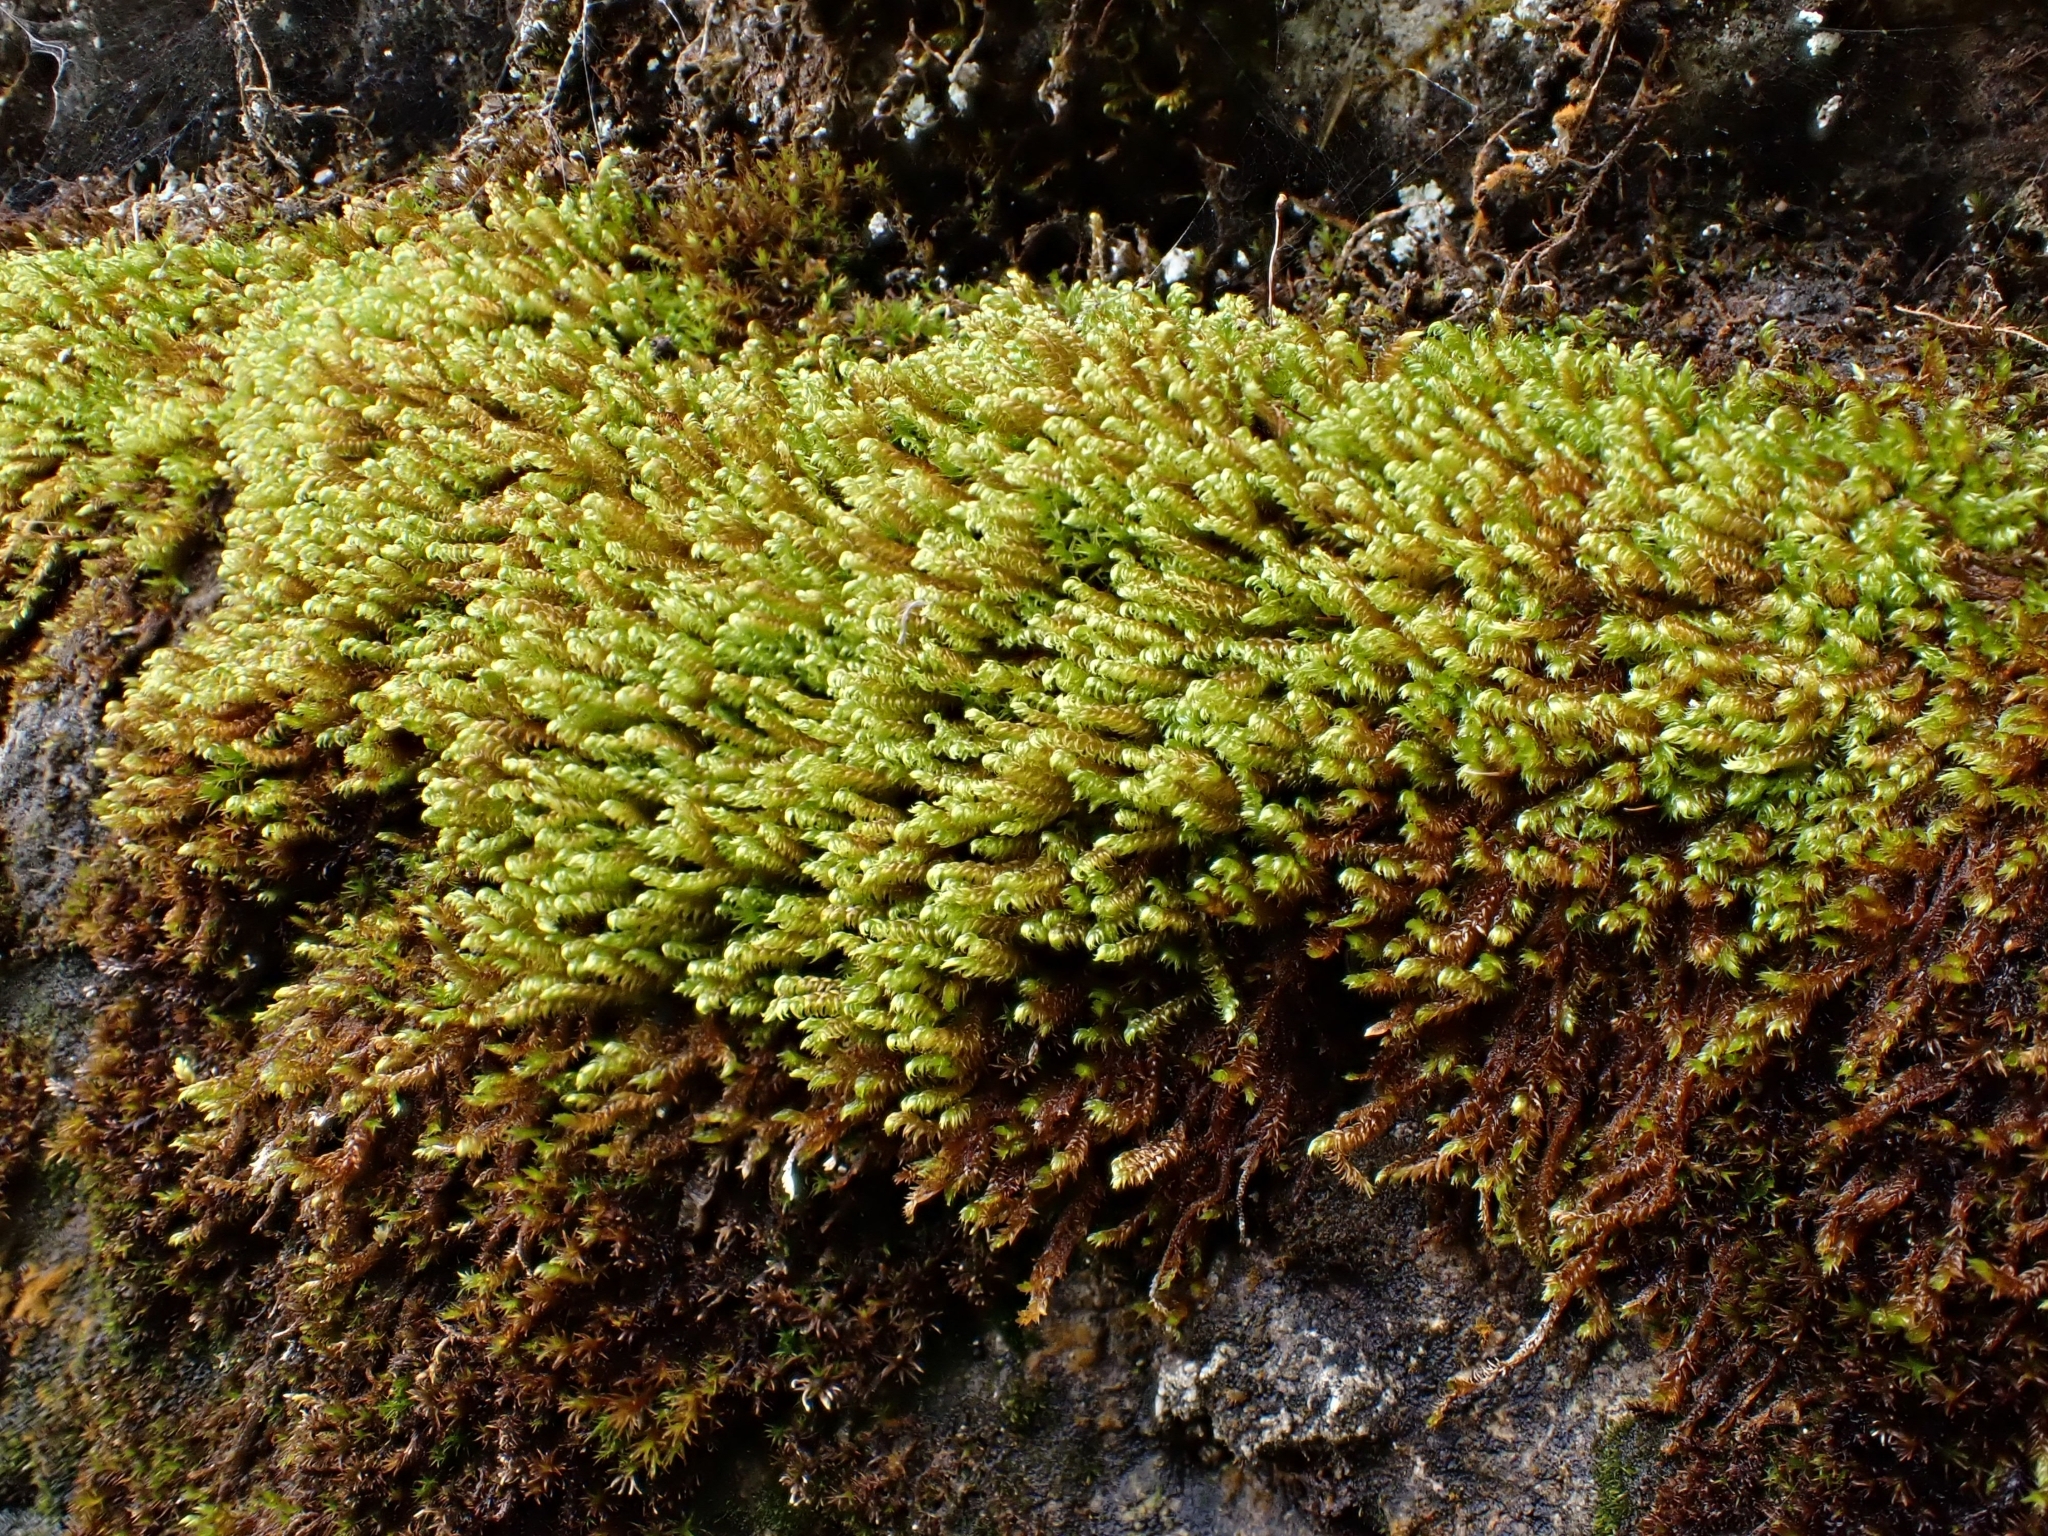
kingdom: Plantae
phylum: Bryophyta
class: Bryopsida
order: Hypnales
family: Amblystegiaceae
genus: Hygrohypnum
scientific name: Hygrohypnum luridum
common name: Drab brook moss
